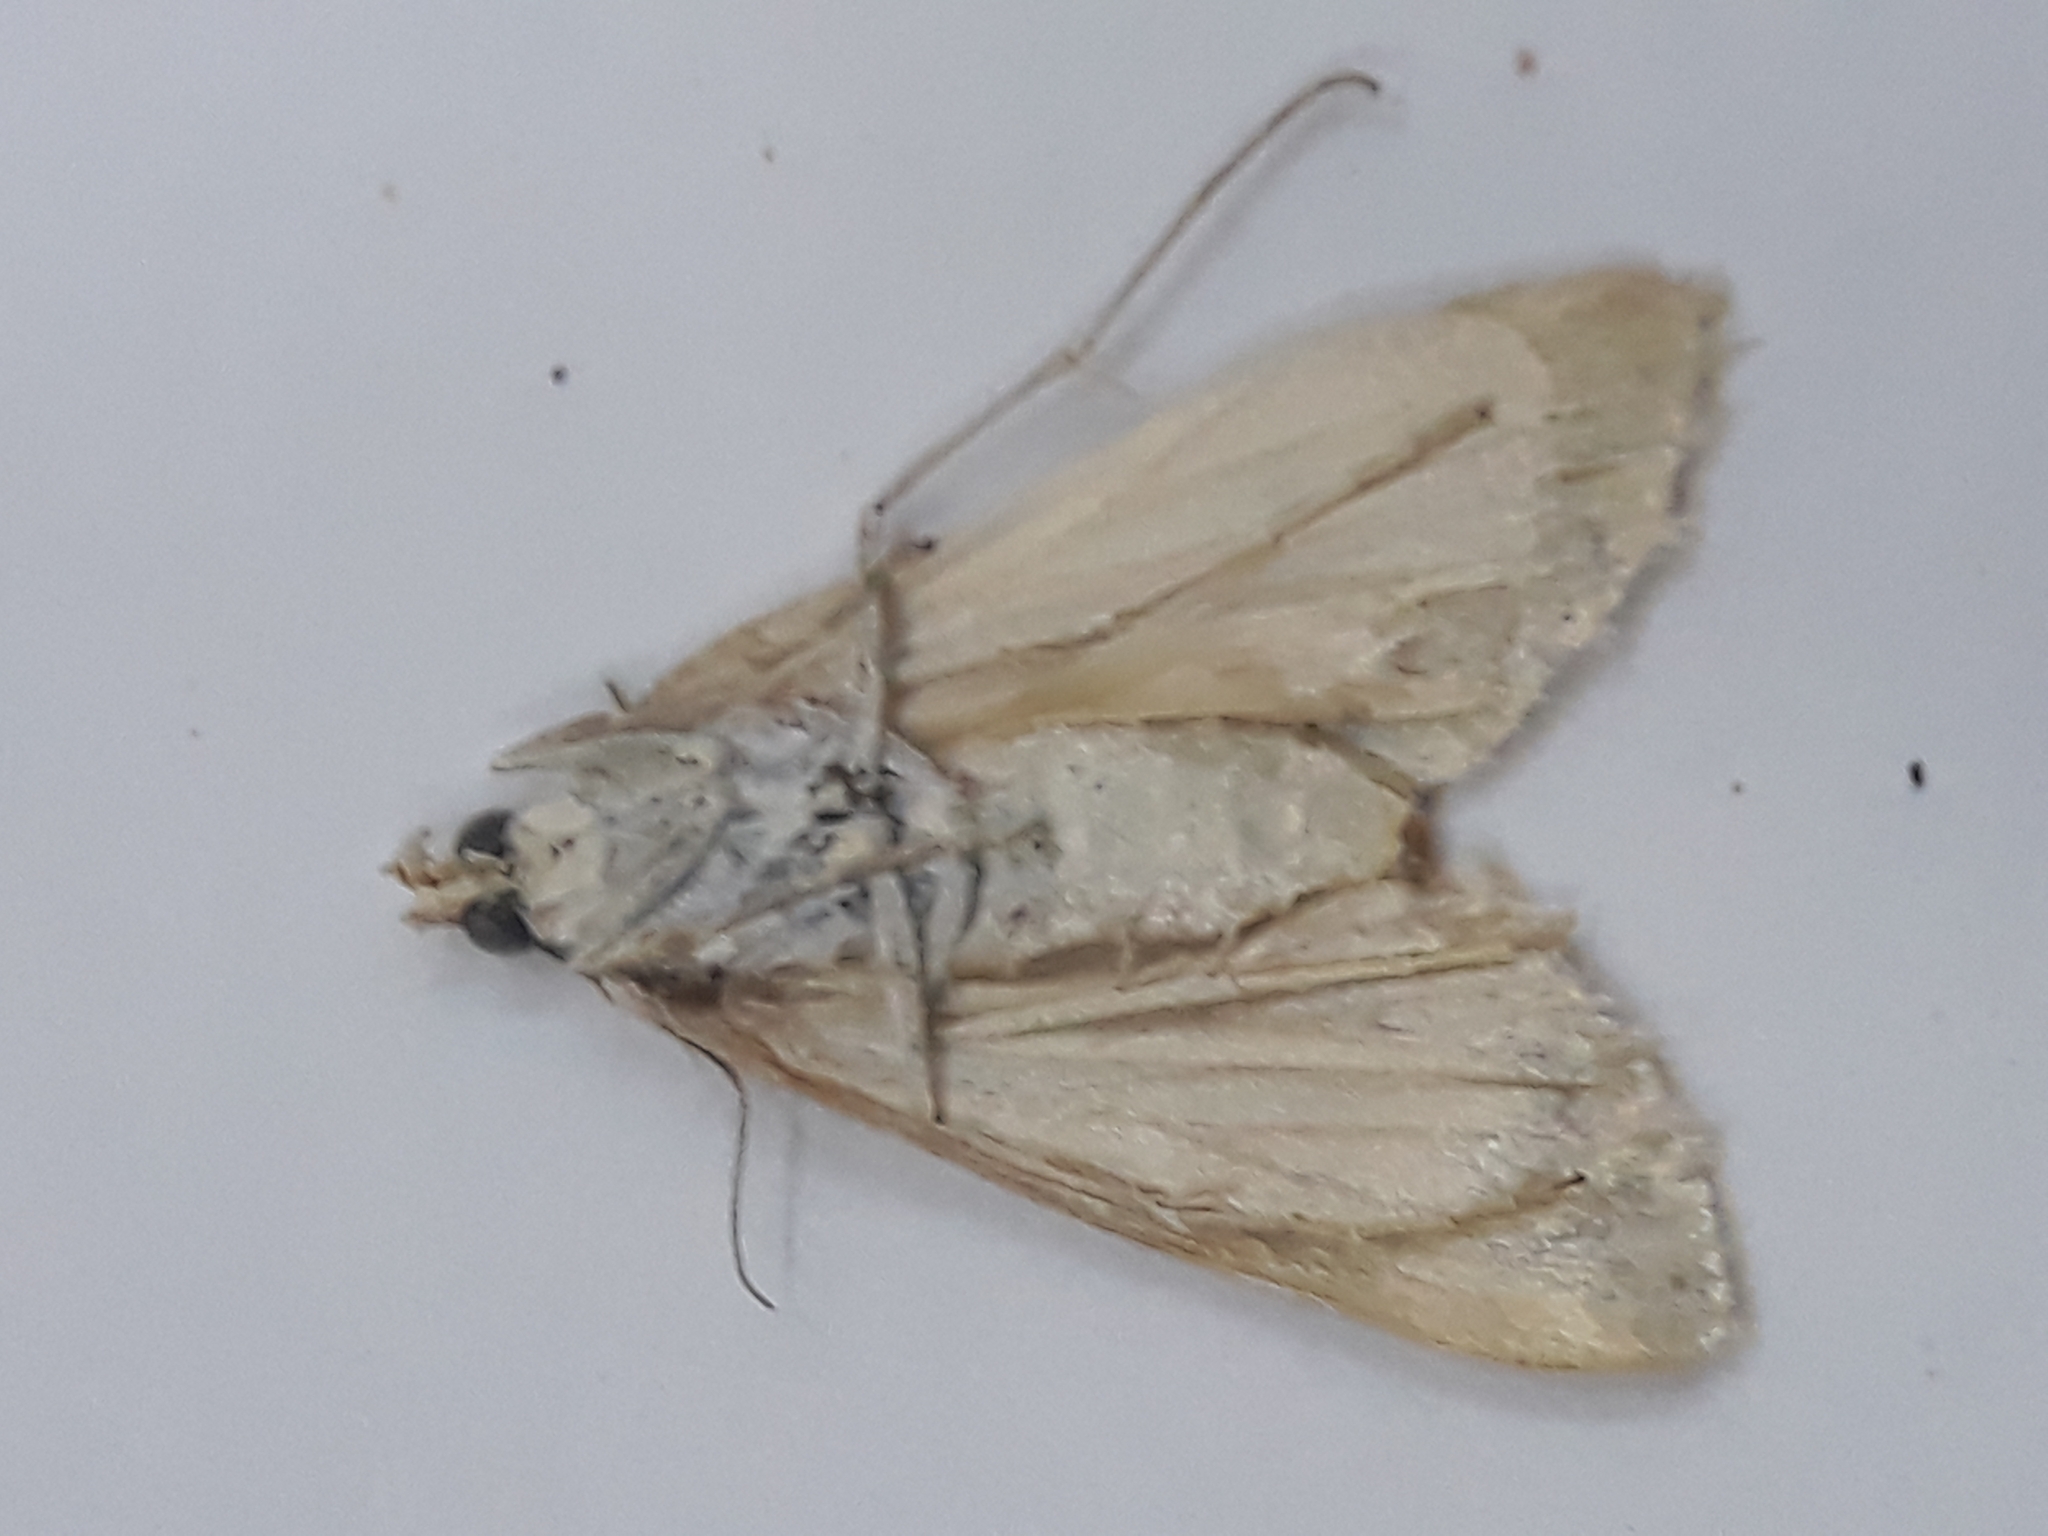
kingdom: Animalia
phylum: Arthropoda
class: Insecta
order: Lepidoptera
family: Crambidae
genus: Cornifrons
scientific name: Cornifrons ulceratalis
